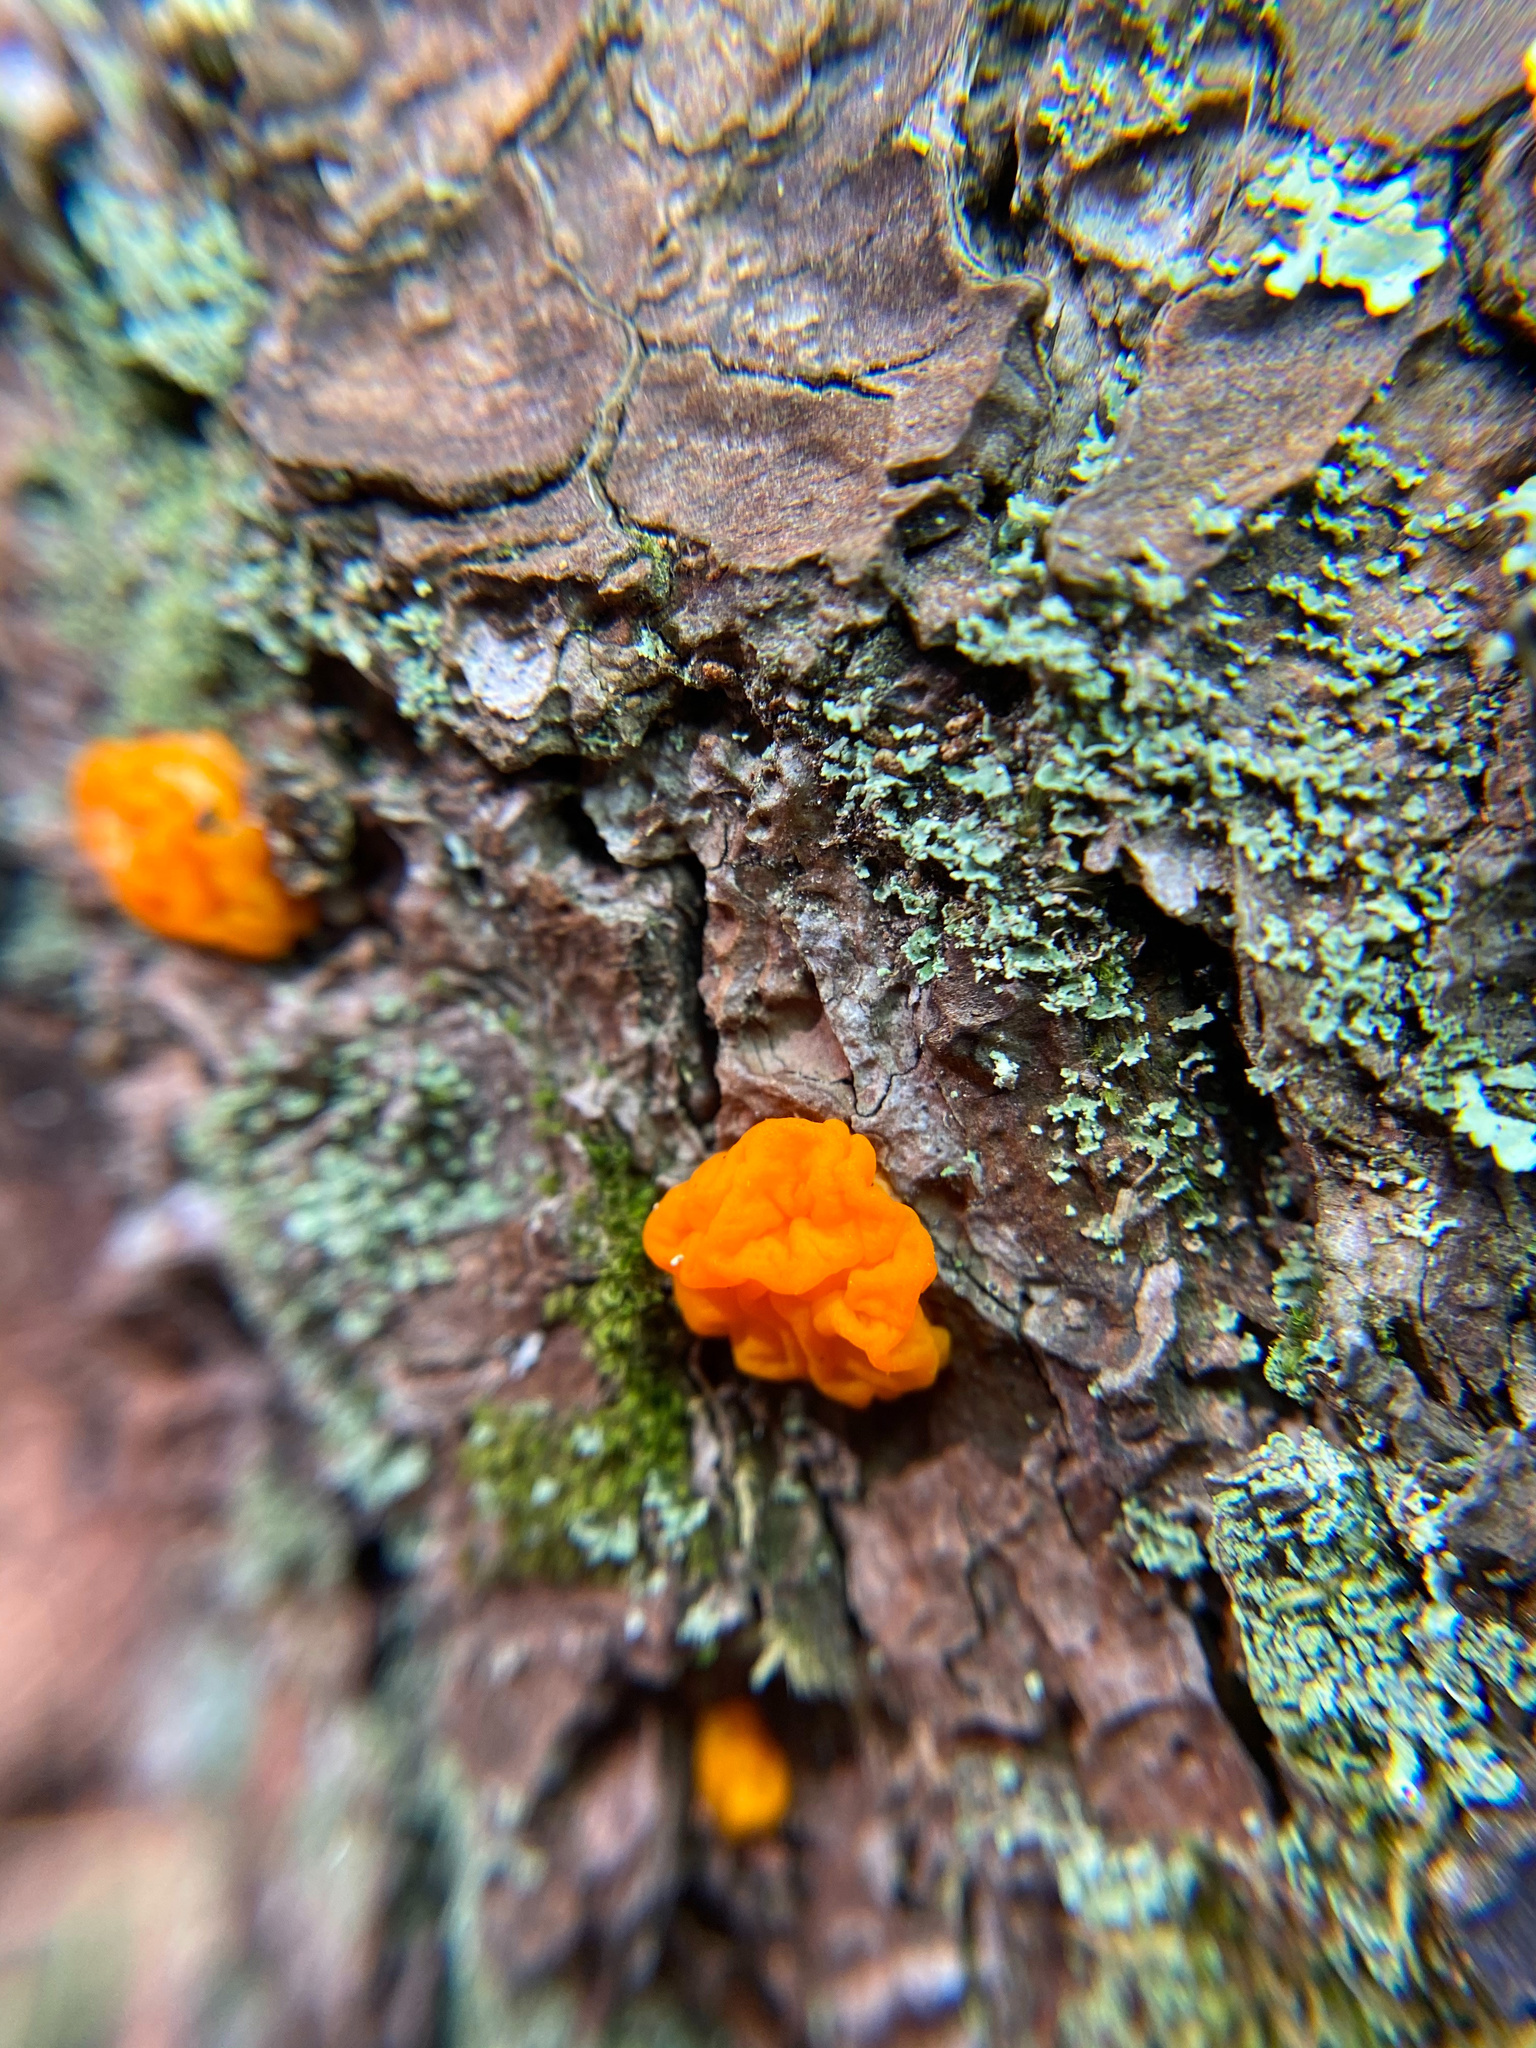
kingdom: Fungi
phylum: Basidiomycota
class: Dacrymycetes
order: Dacrymycetales
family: Dacrymycetaceae
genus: Dacrymyces
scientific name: Dacrymyces chrysospermus
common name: Orange jelly spot
